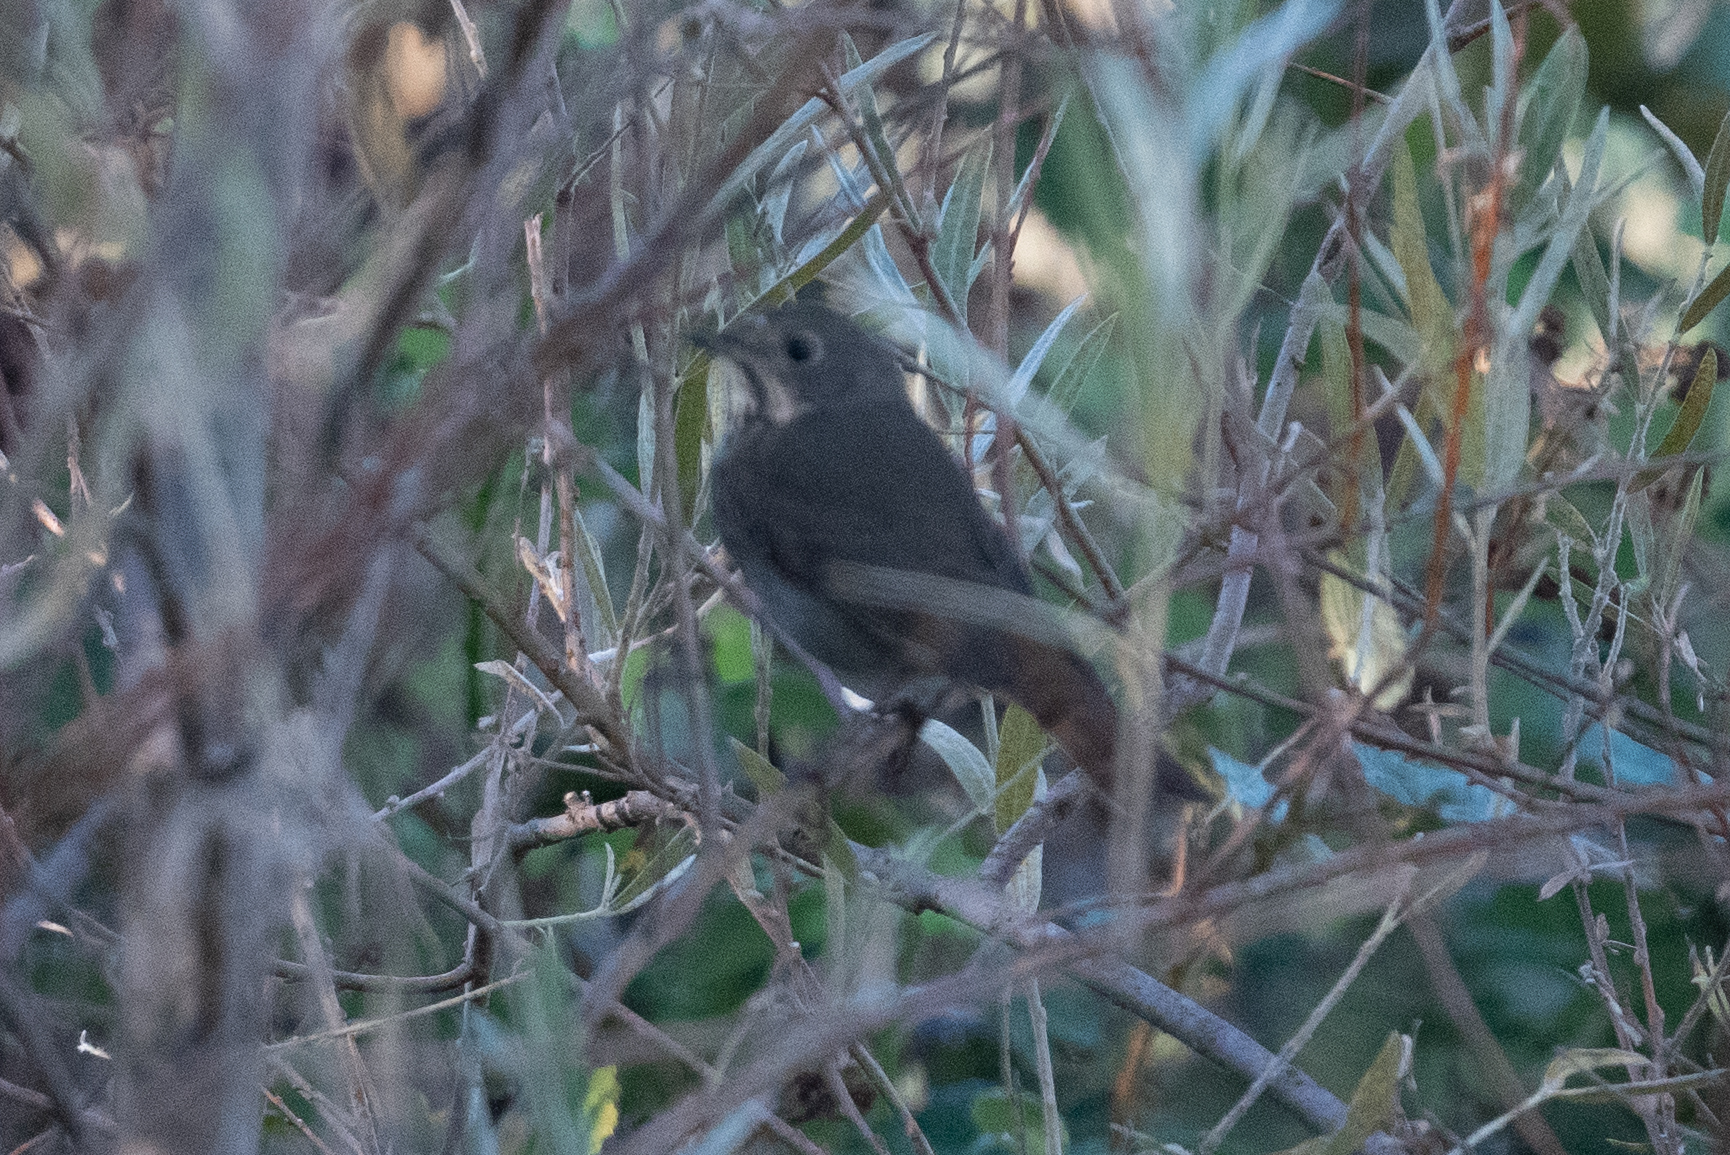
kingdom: Animalia
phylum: Chordata
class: Aves
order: Passeriformes
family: Turdidae
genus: Catharus
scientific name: Catharus guttatus
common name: Hermit thrush
